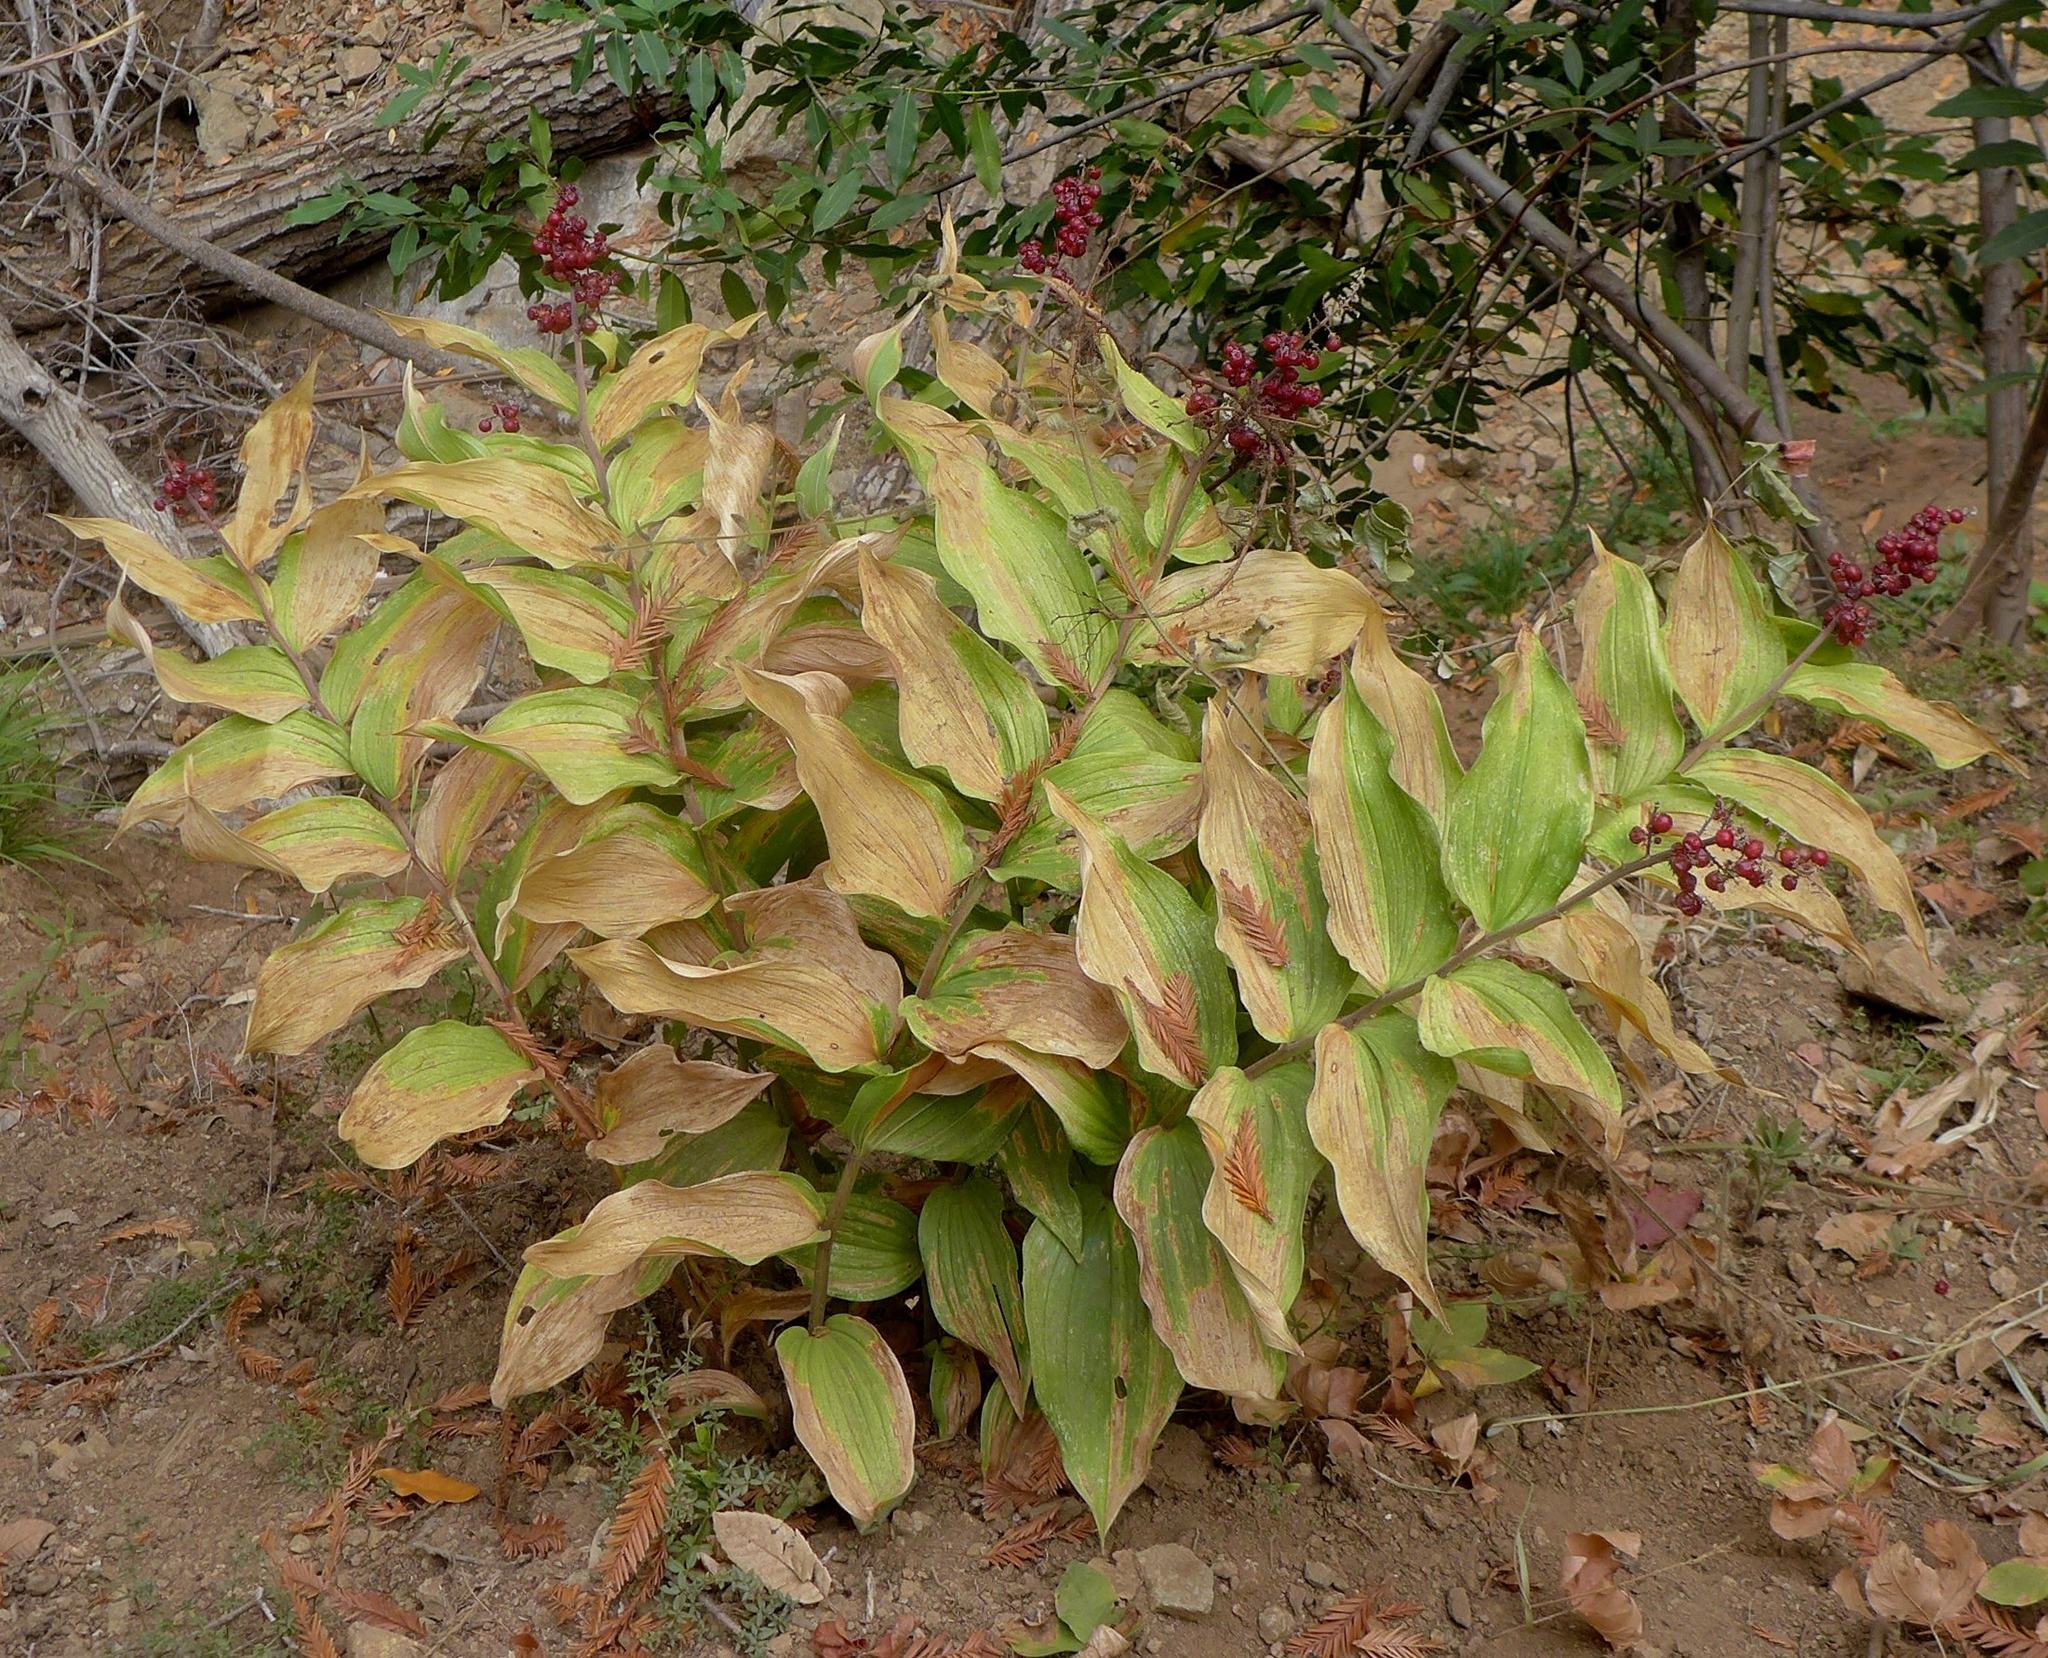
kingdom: Plantae
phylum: Tracheophyta
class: Liliopsida
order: Asparagales
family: Asparagaceae
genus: Maianthemum
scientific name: Maianthemum racemosum
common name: False spikenard
